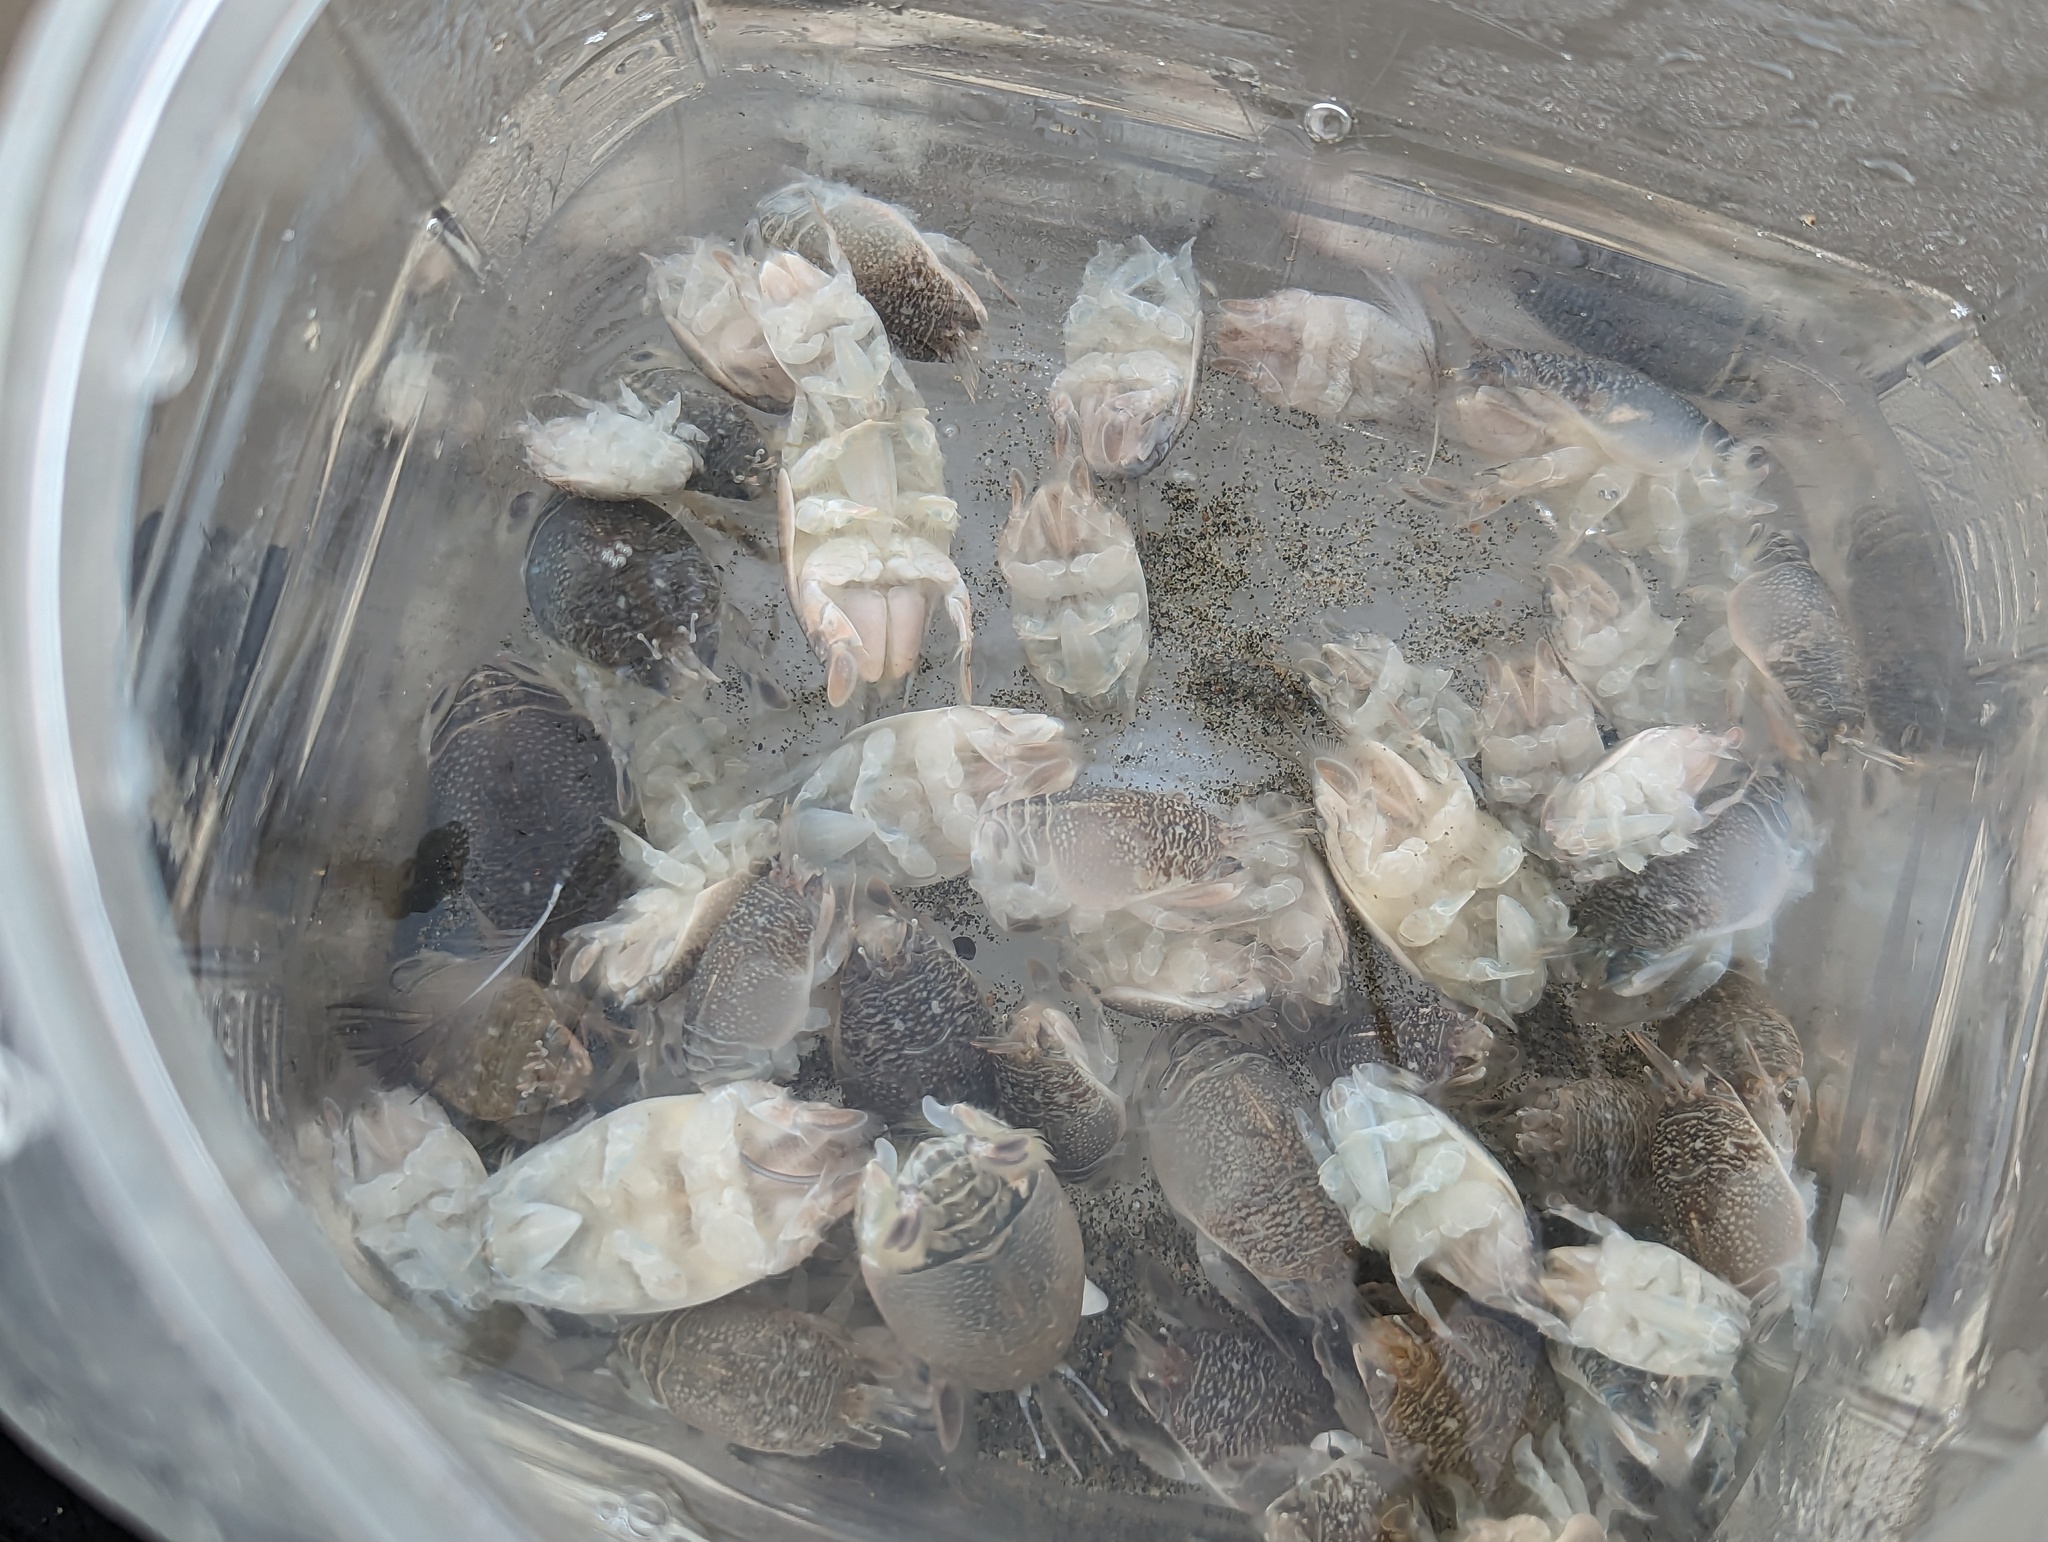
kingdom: Animalia
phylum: Arthropoda
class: Malacostraca
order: Decapoda
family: Hippidae
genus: Emerita
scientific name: Emerita analoga
